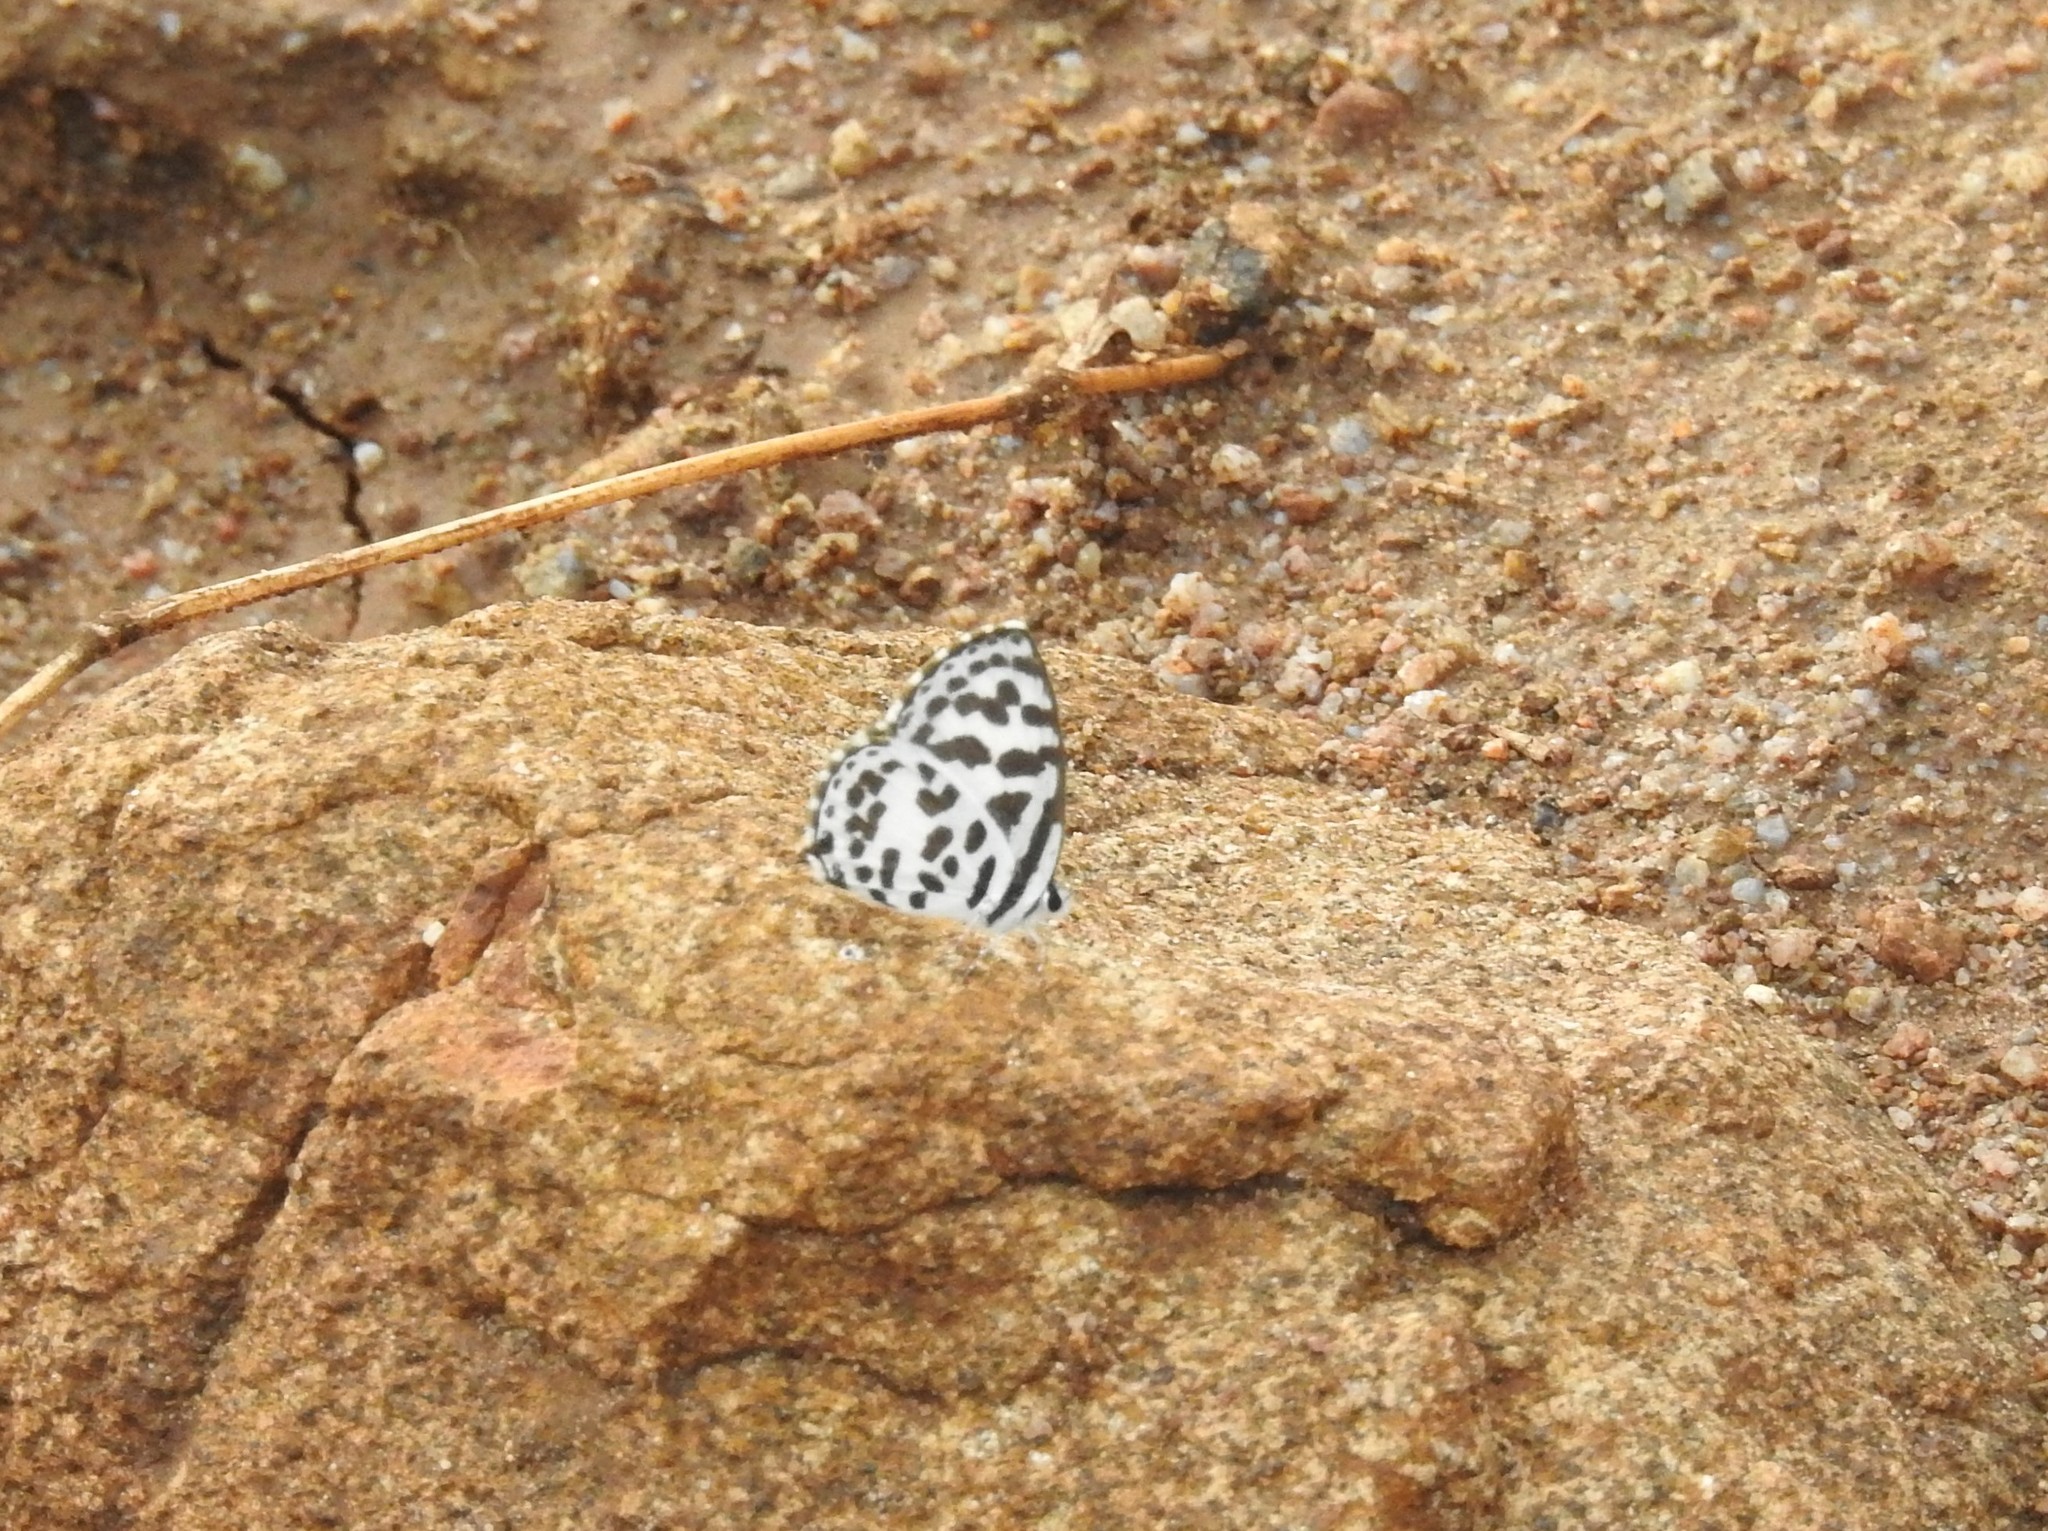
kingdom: Animalia
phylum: Arthropoda
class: Insecta
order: Lepidoptera
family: Lycaenidae
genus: Castalius
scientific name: Castalius rosimon
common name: Common pierrot
